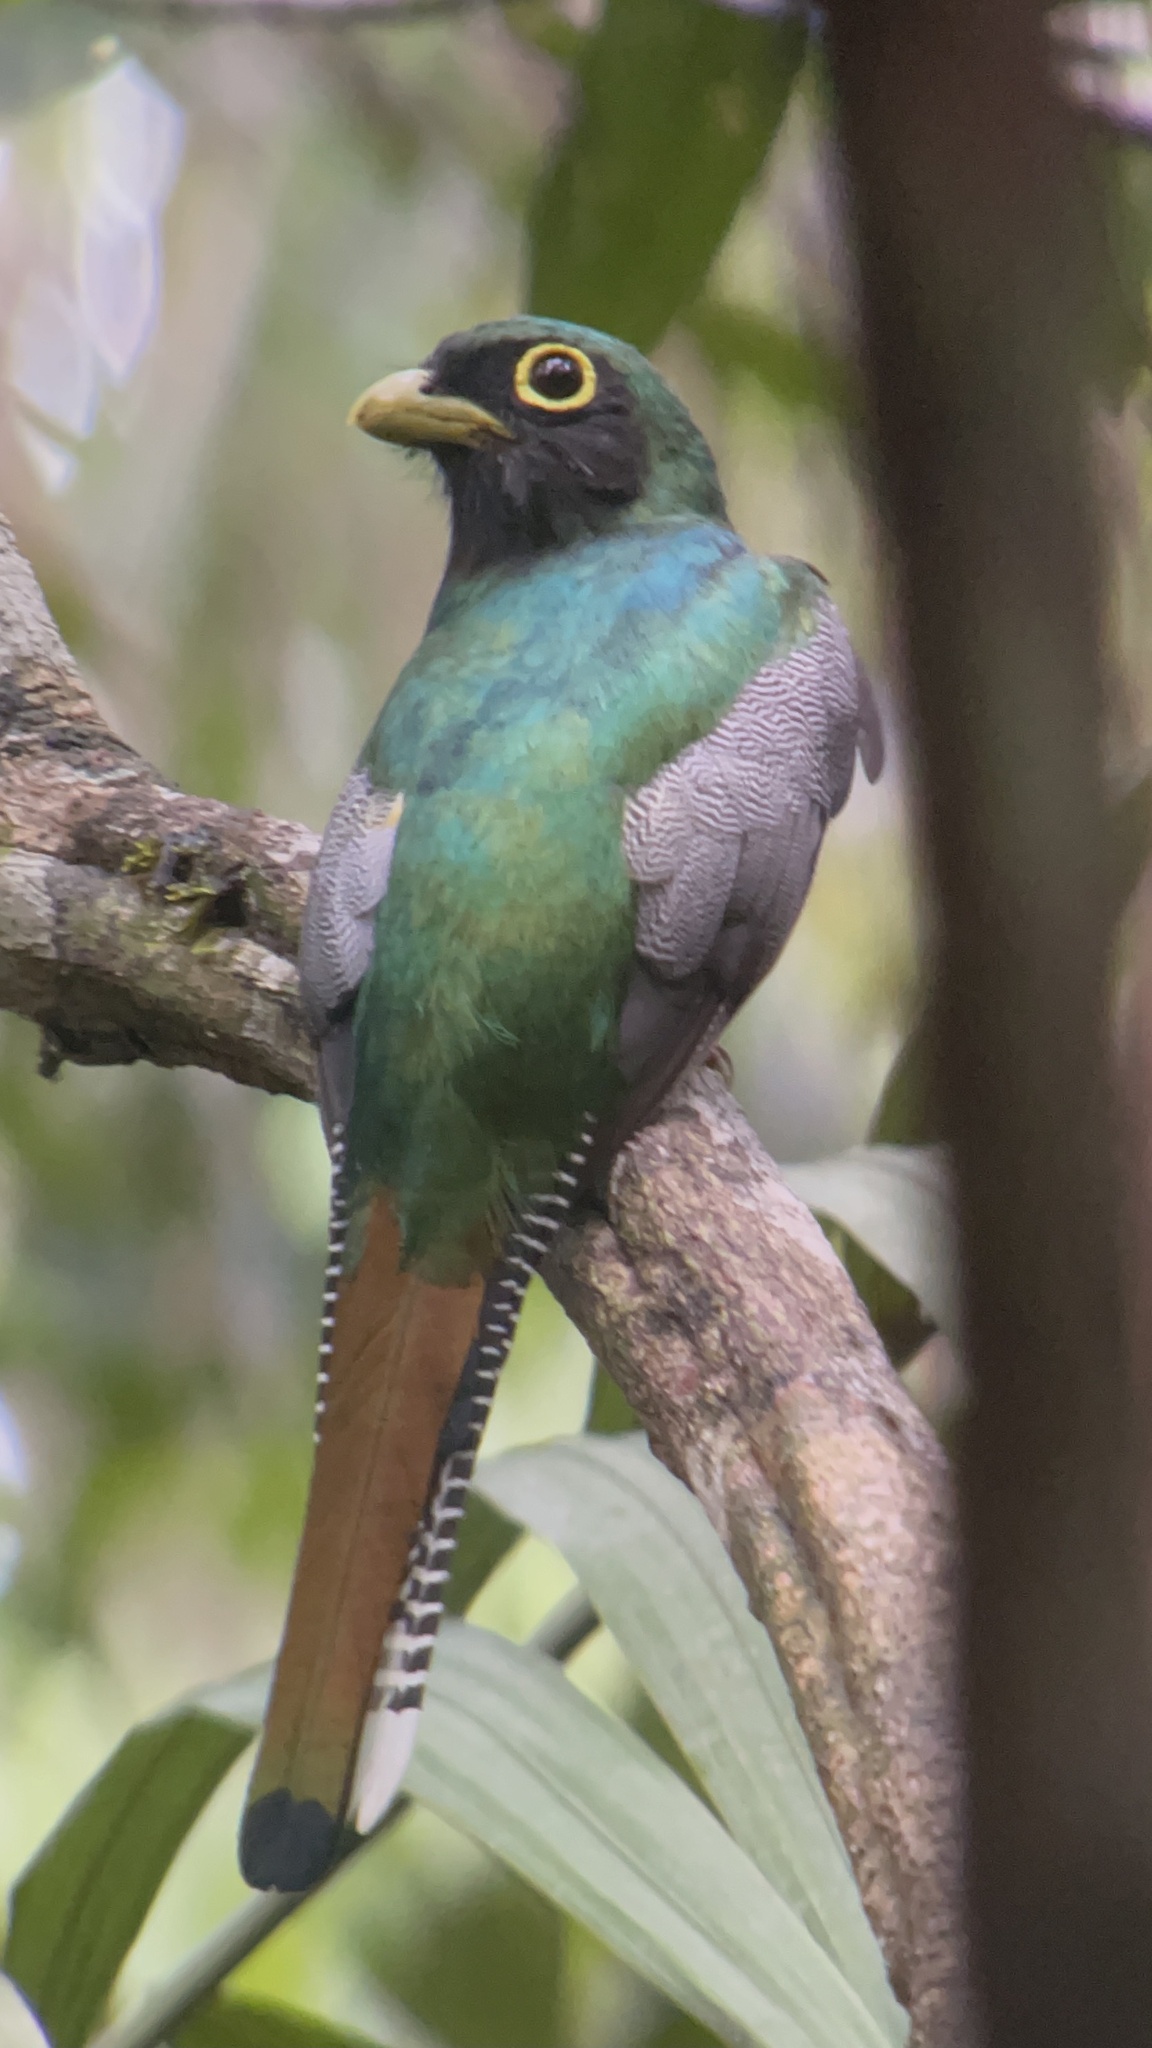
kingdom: Animalia
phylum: Chordata
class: Aves
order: Trogoniformes
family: Trogonidae
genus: Trogon
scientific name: Trogon rufus
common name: Black-throated trogon
